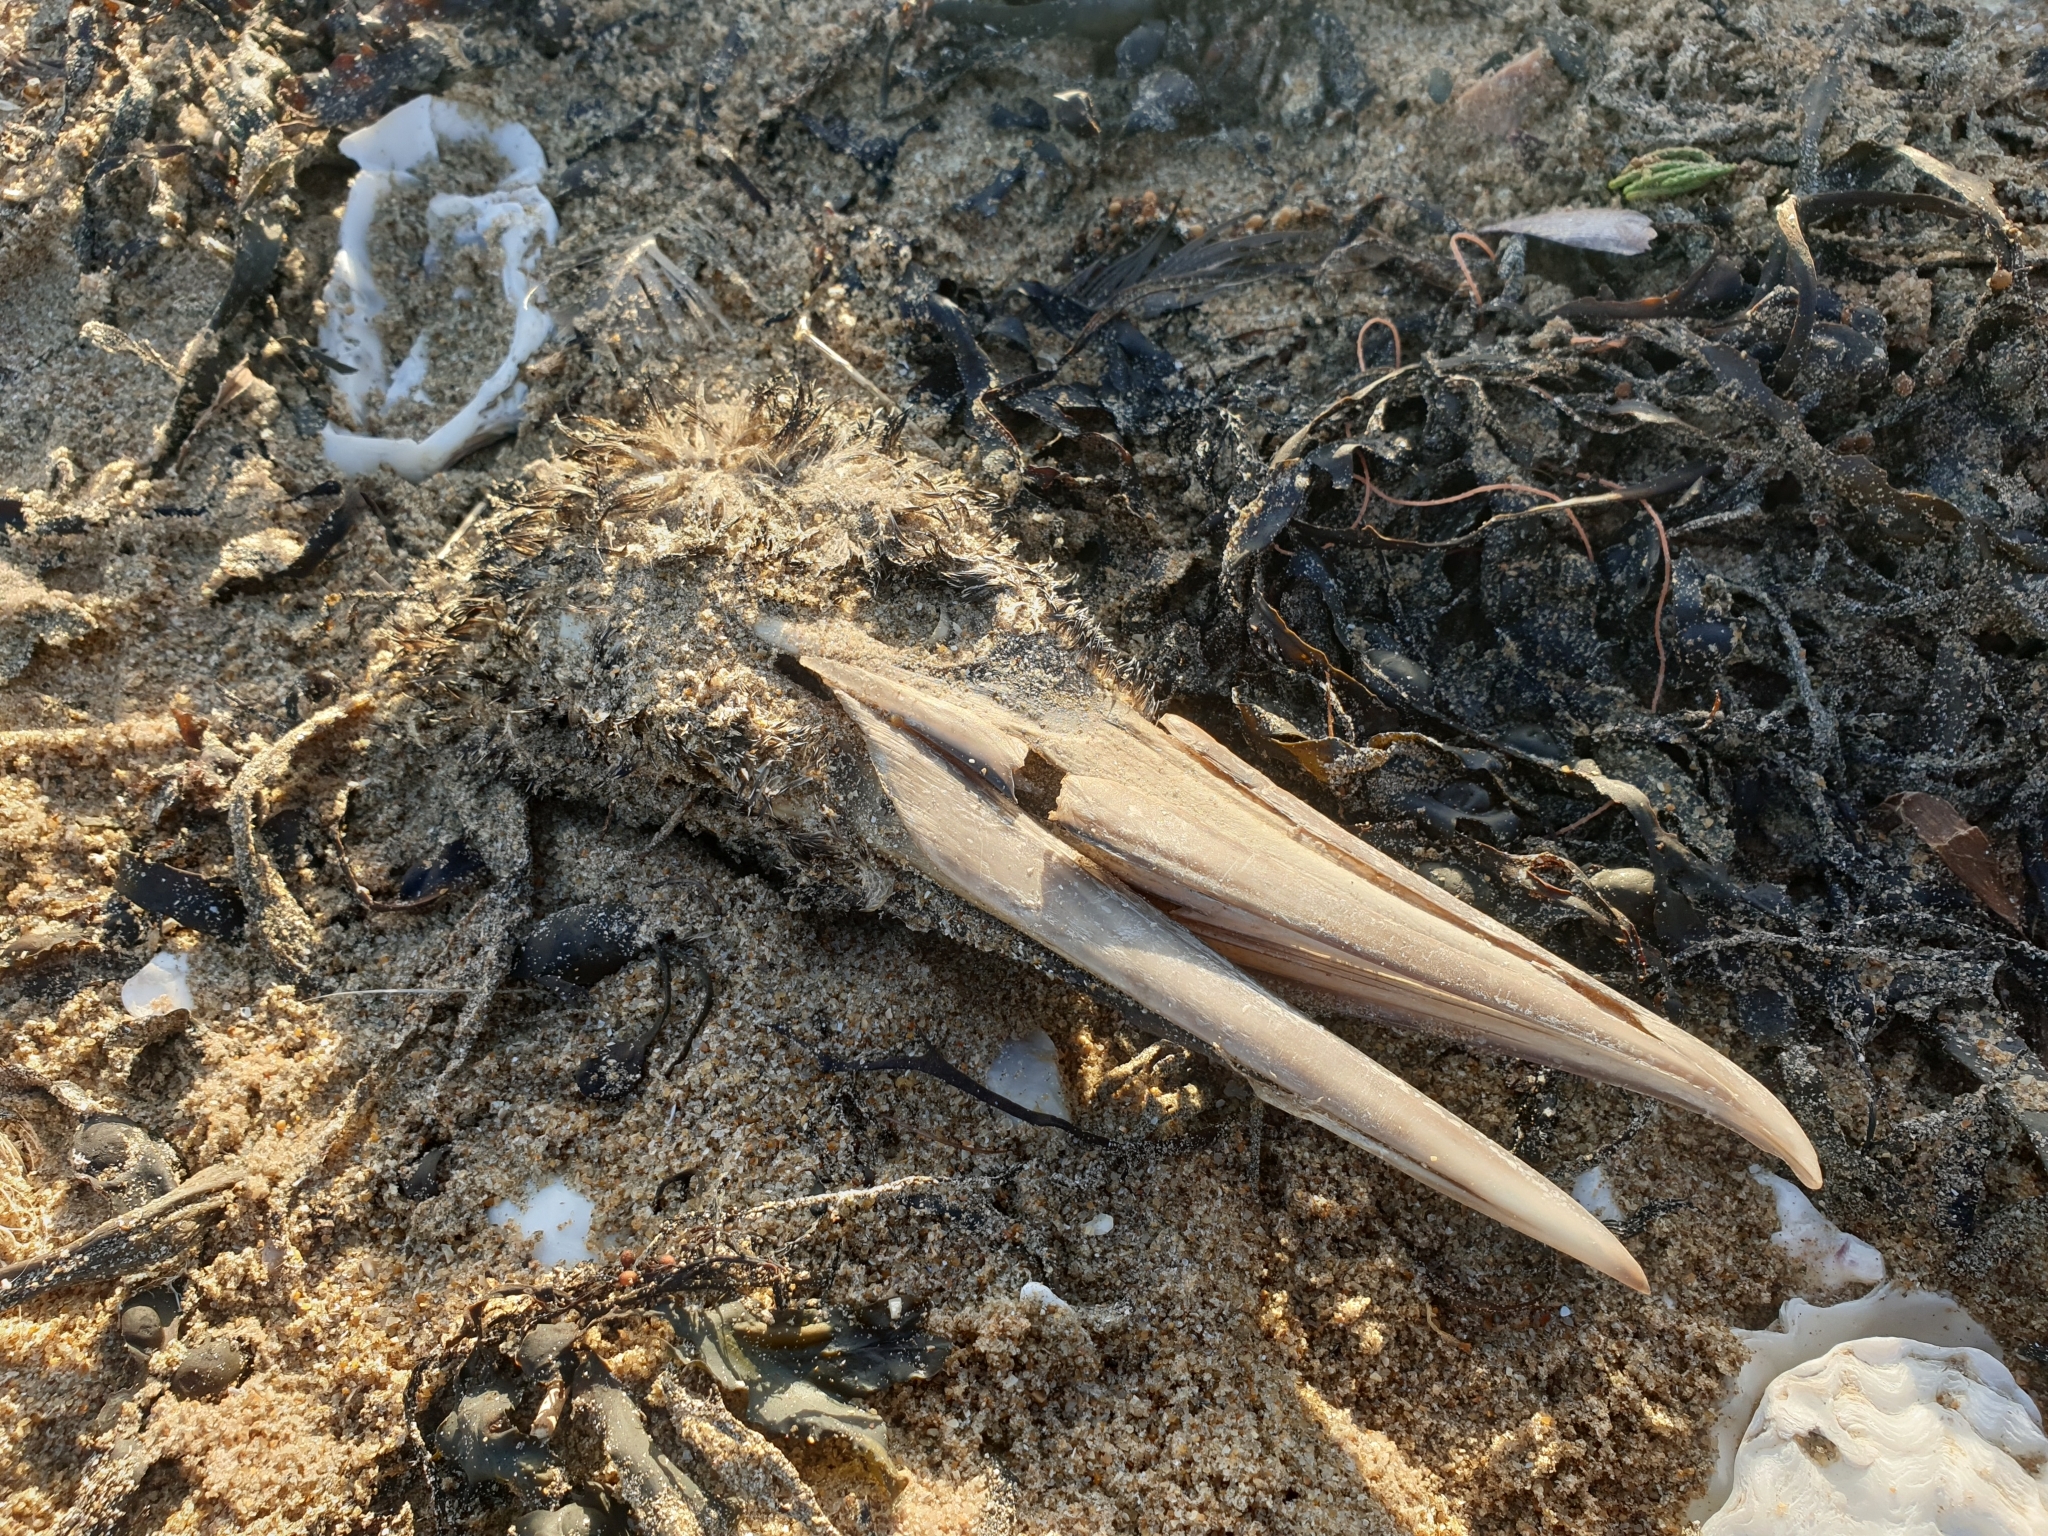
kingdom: Animalia
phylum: Chordata
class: Aves
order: Suliformes
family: Sulidae
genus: Morus
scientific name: Morus bassanus
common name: Northern gannet
